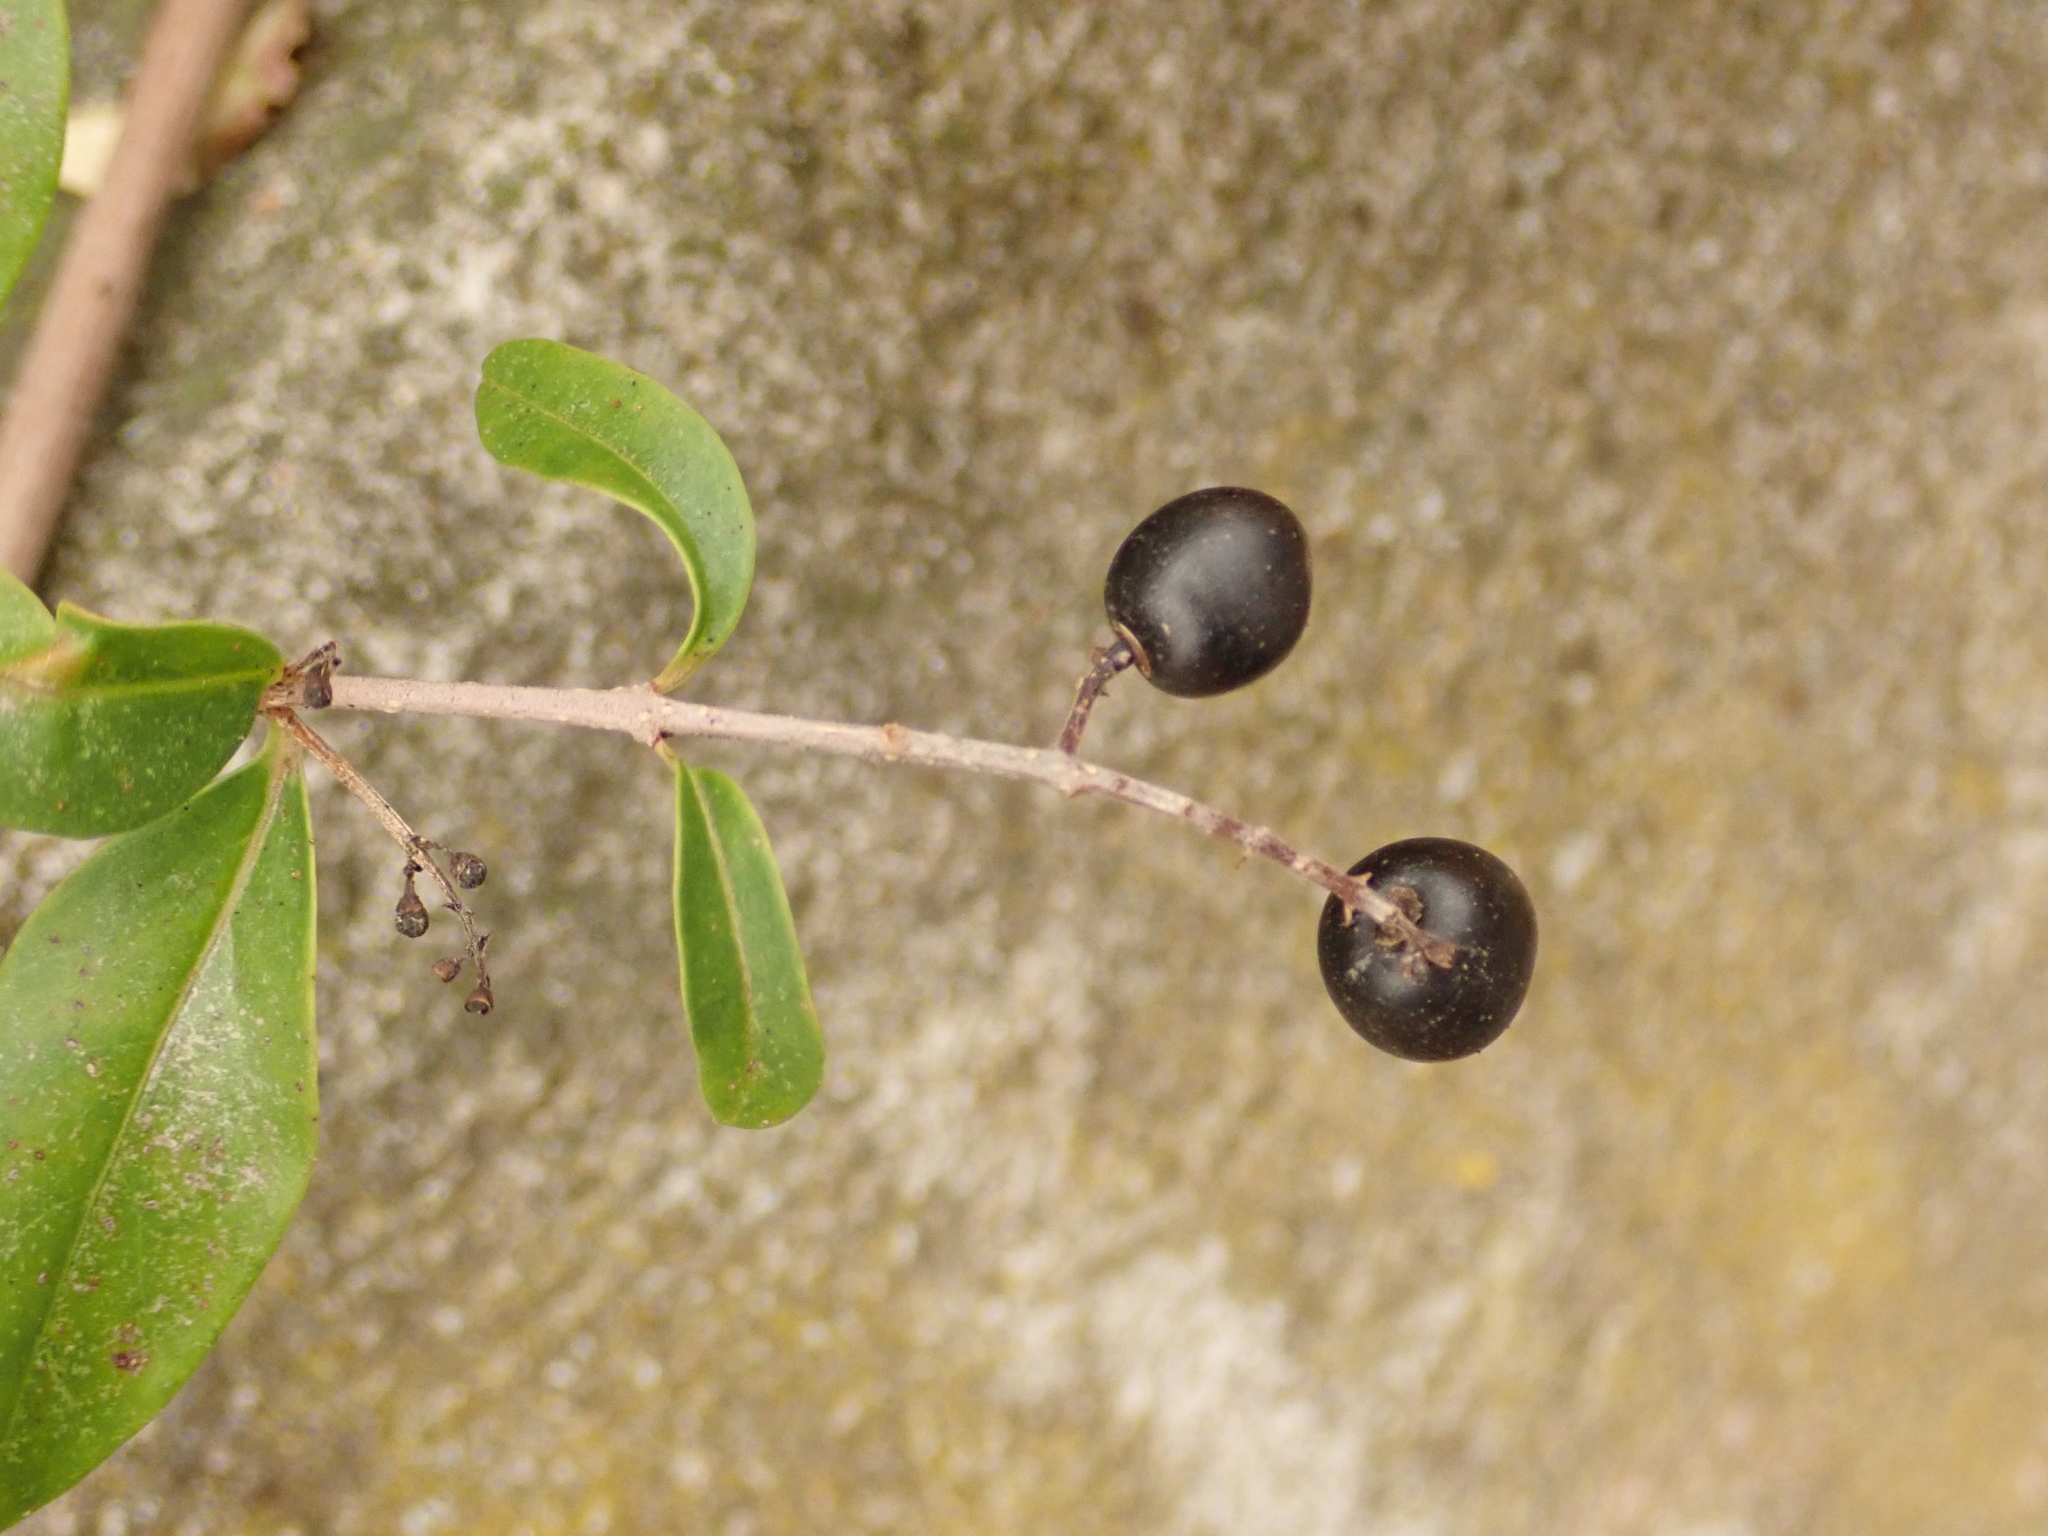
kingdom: Plantae
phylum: Tracheophyta
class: Magnoliopsida
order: Lamiales
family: Oleaceae
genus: Ligustrum
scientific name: Ligustrum vulgare
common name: Wild privet
